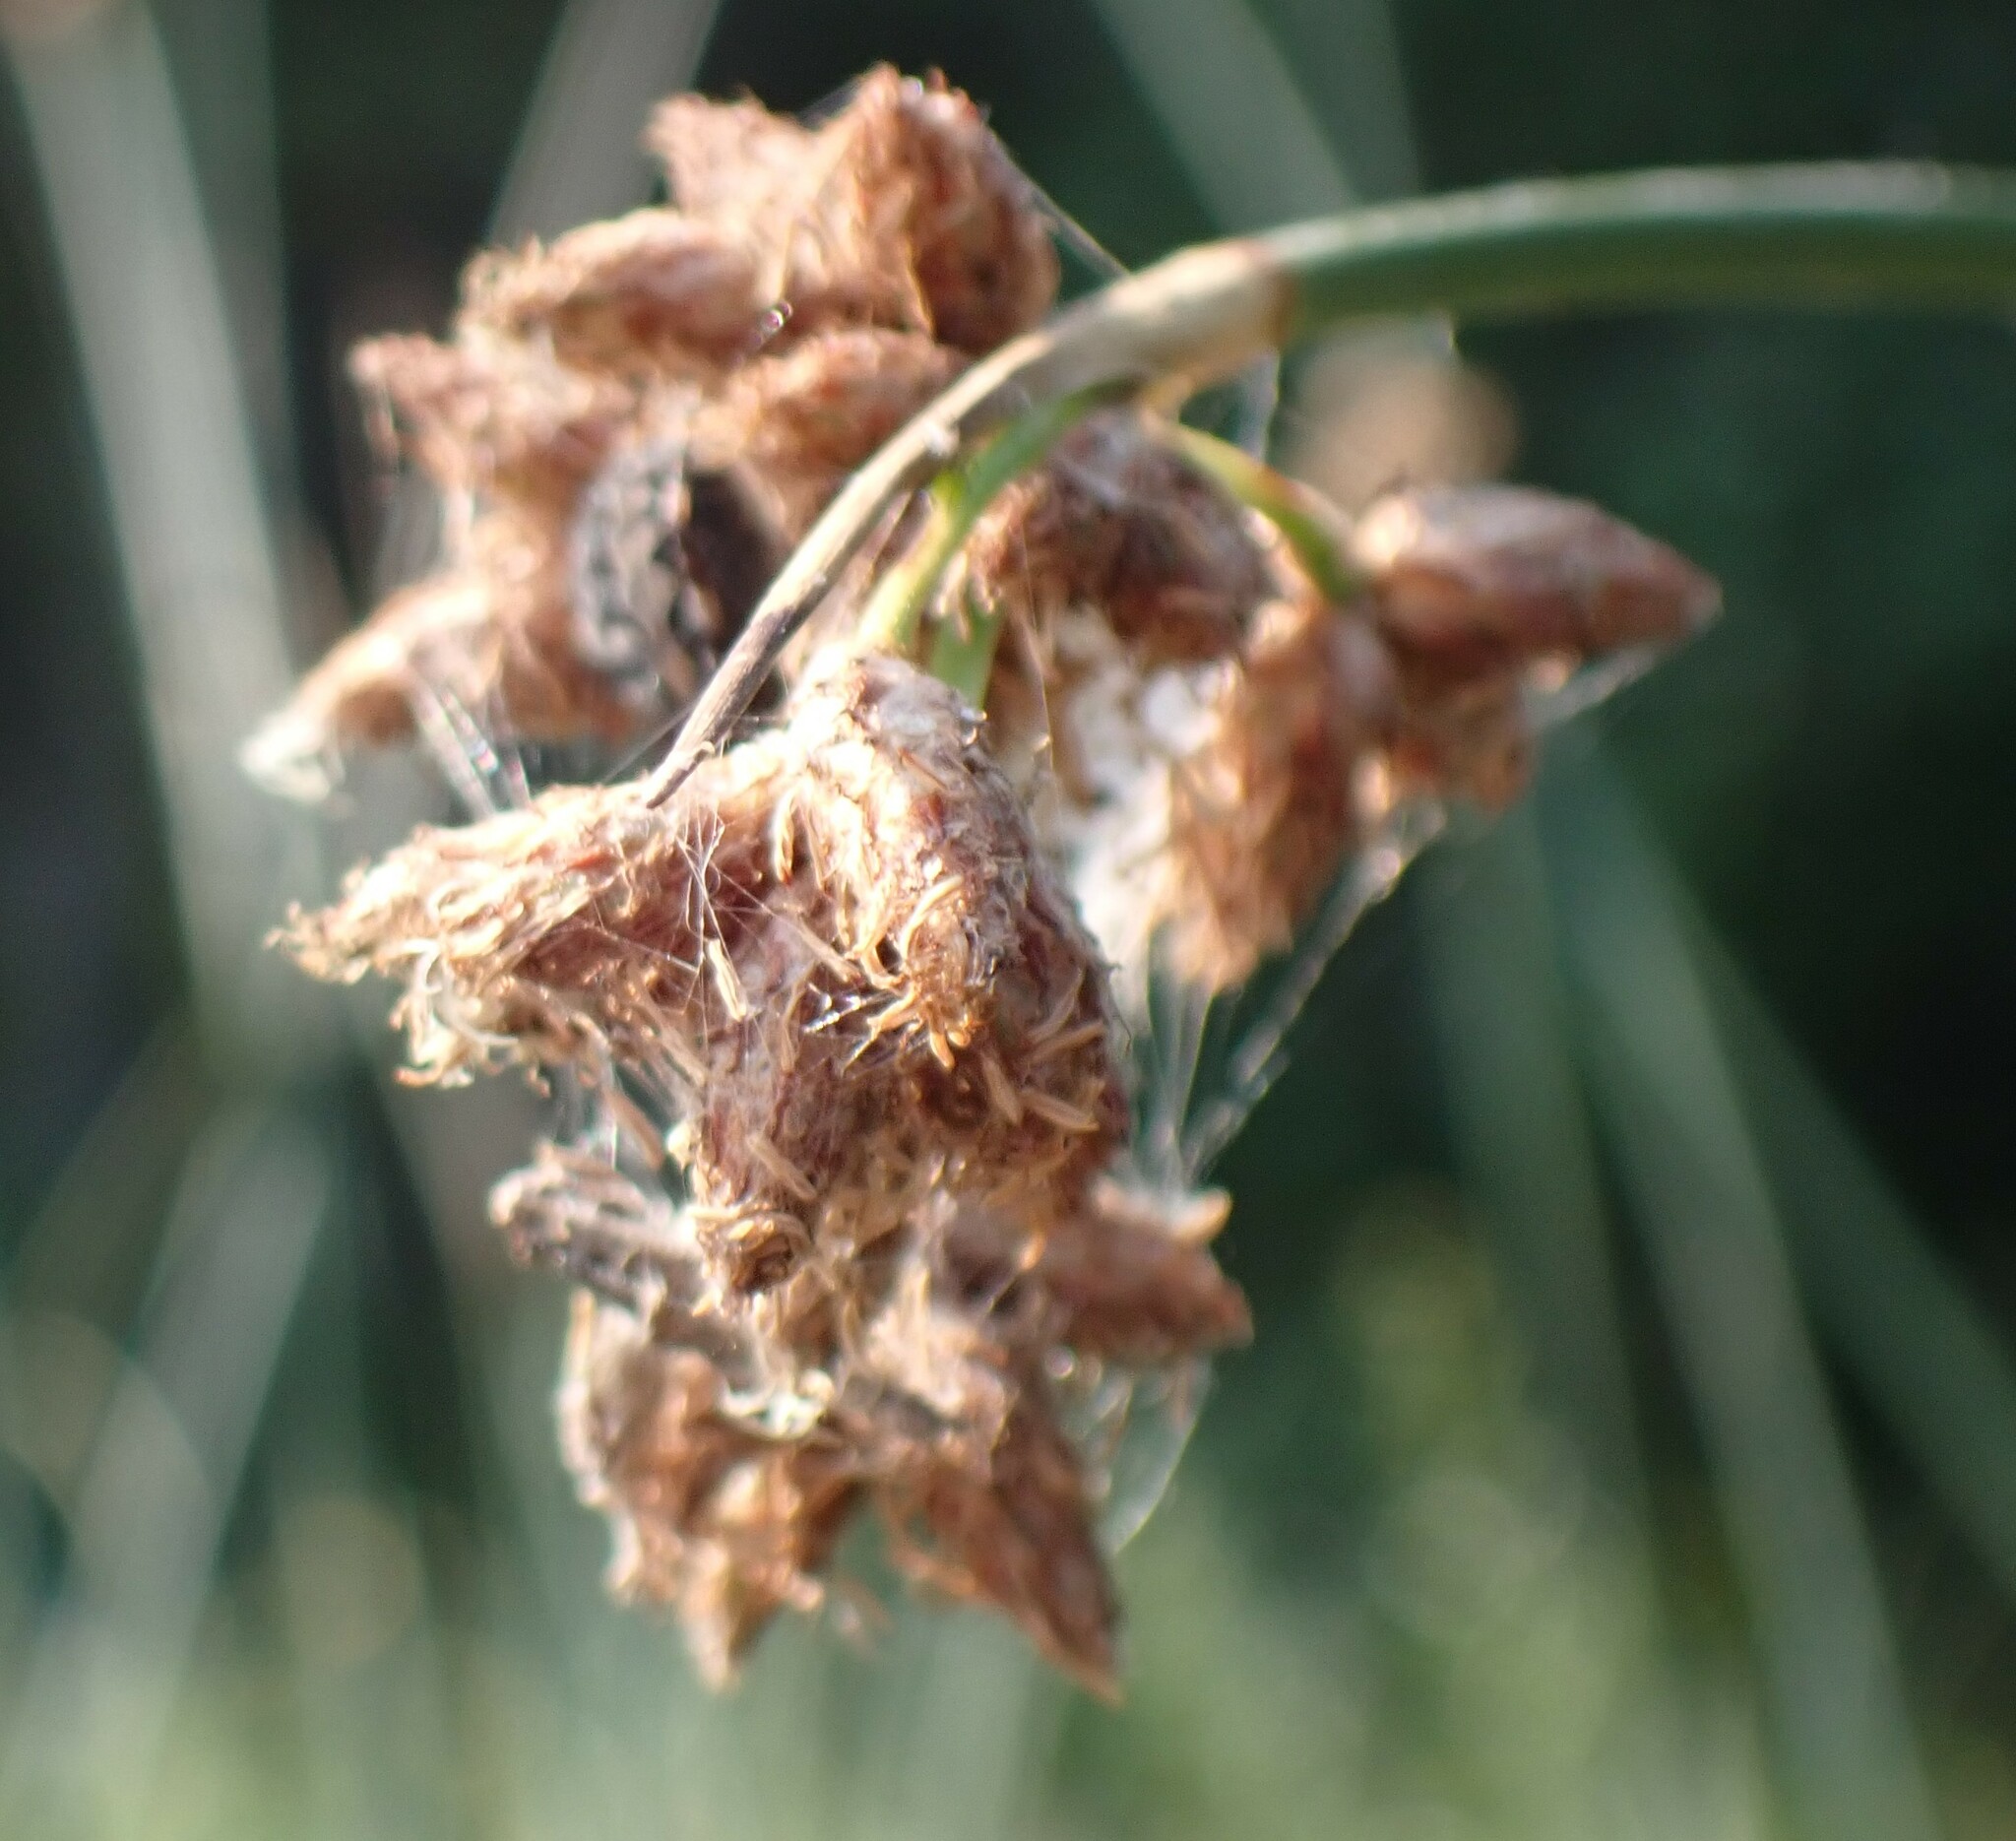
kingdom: Plantae
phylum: Tracheophyta
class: Liliopsida
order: Poales
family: Cyperaceae
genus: Schoenoplectus
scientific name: Schoenoplectus acutus
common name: Hardstem bulrush
